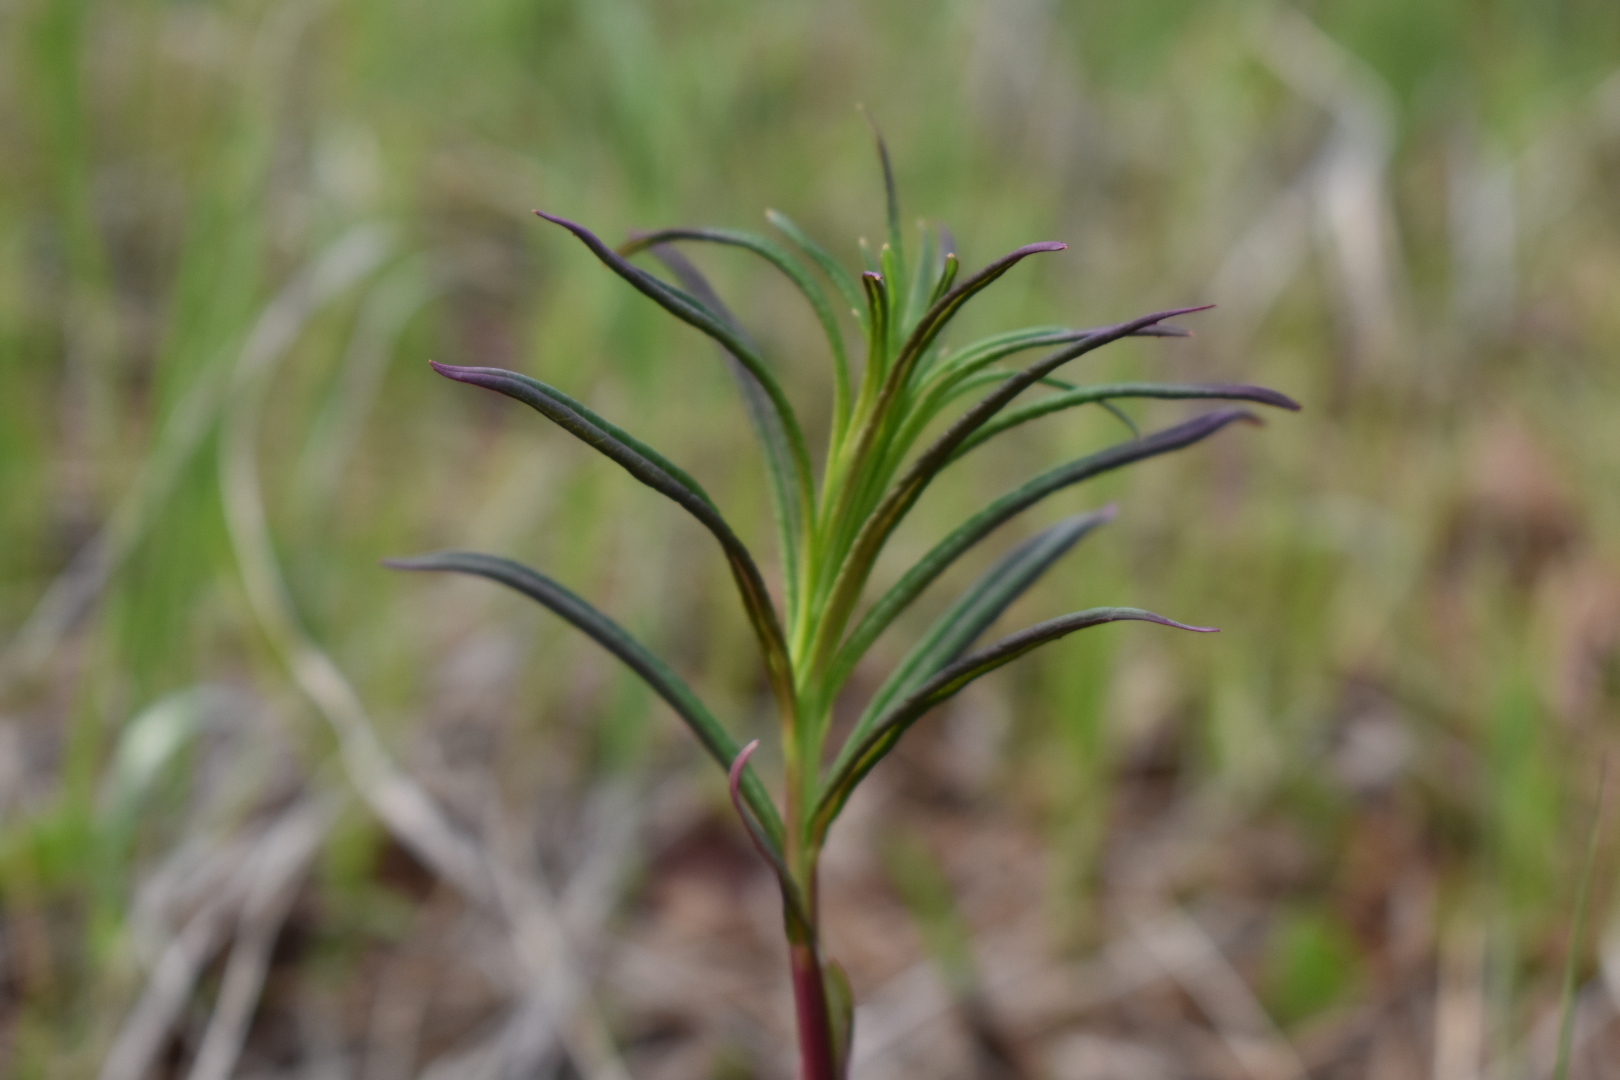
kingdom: Plantae
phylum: Tracheophyta
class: Magnoliopsida
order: Myrtales
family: Onagraceae
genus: Chamaenerion
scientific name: Chamaenerion angustifolium
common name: Fireweed
